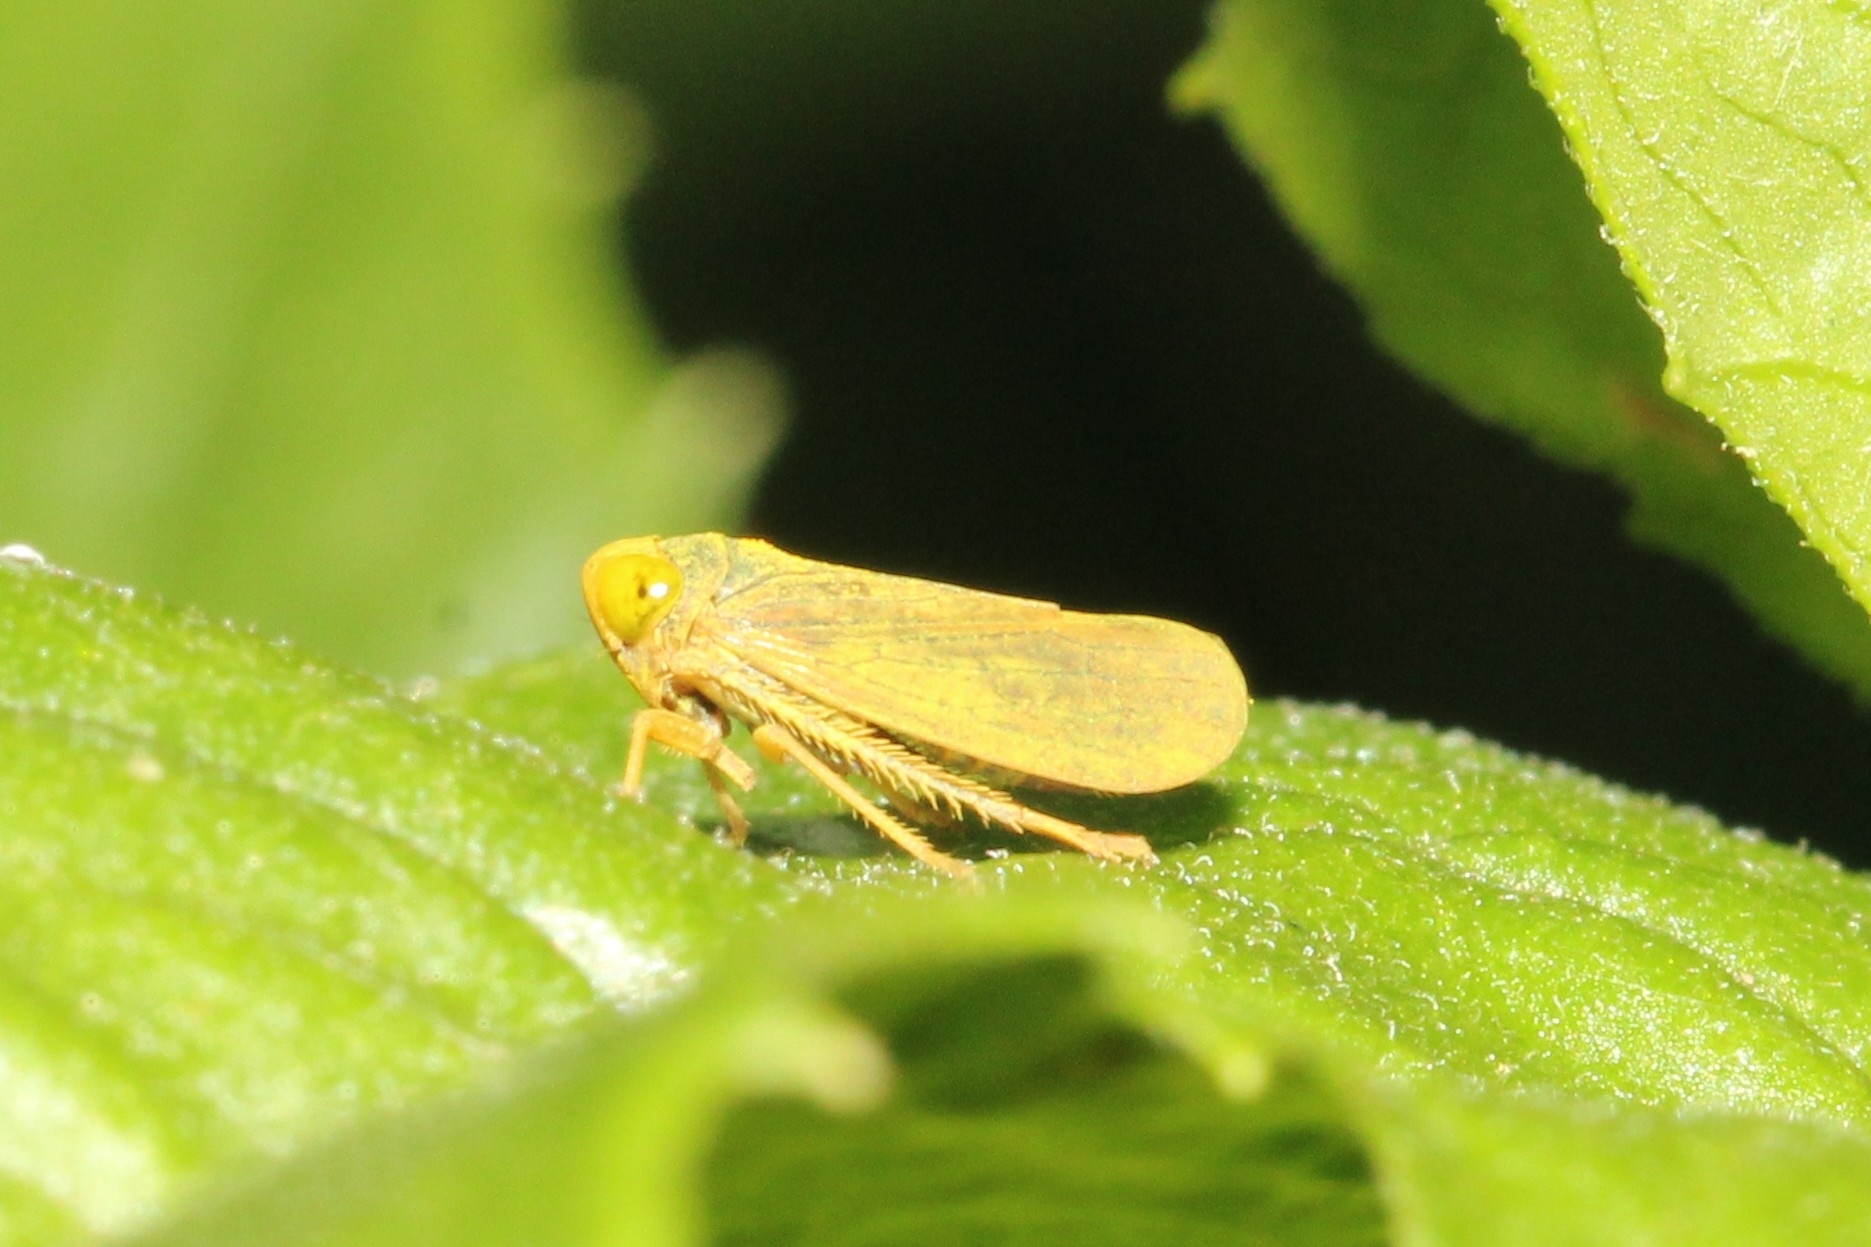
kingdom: Animalia
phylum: Arthropoda
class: Insecta
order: Hemiptera
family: Cicadellidae
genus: Jikradia
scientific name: Jikradia olitoria
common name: Coppery leafhopper
